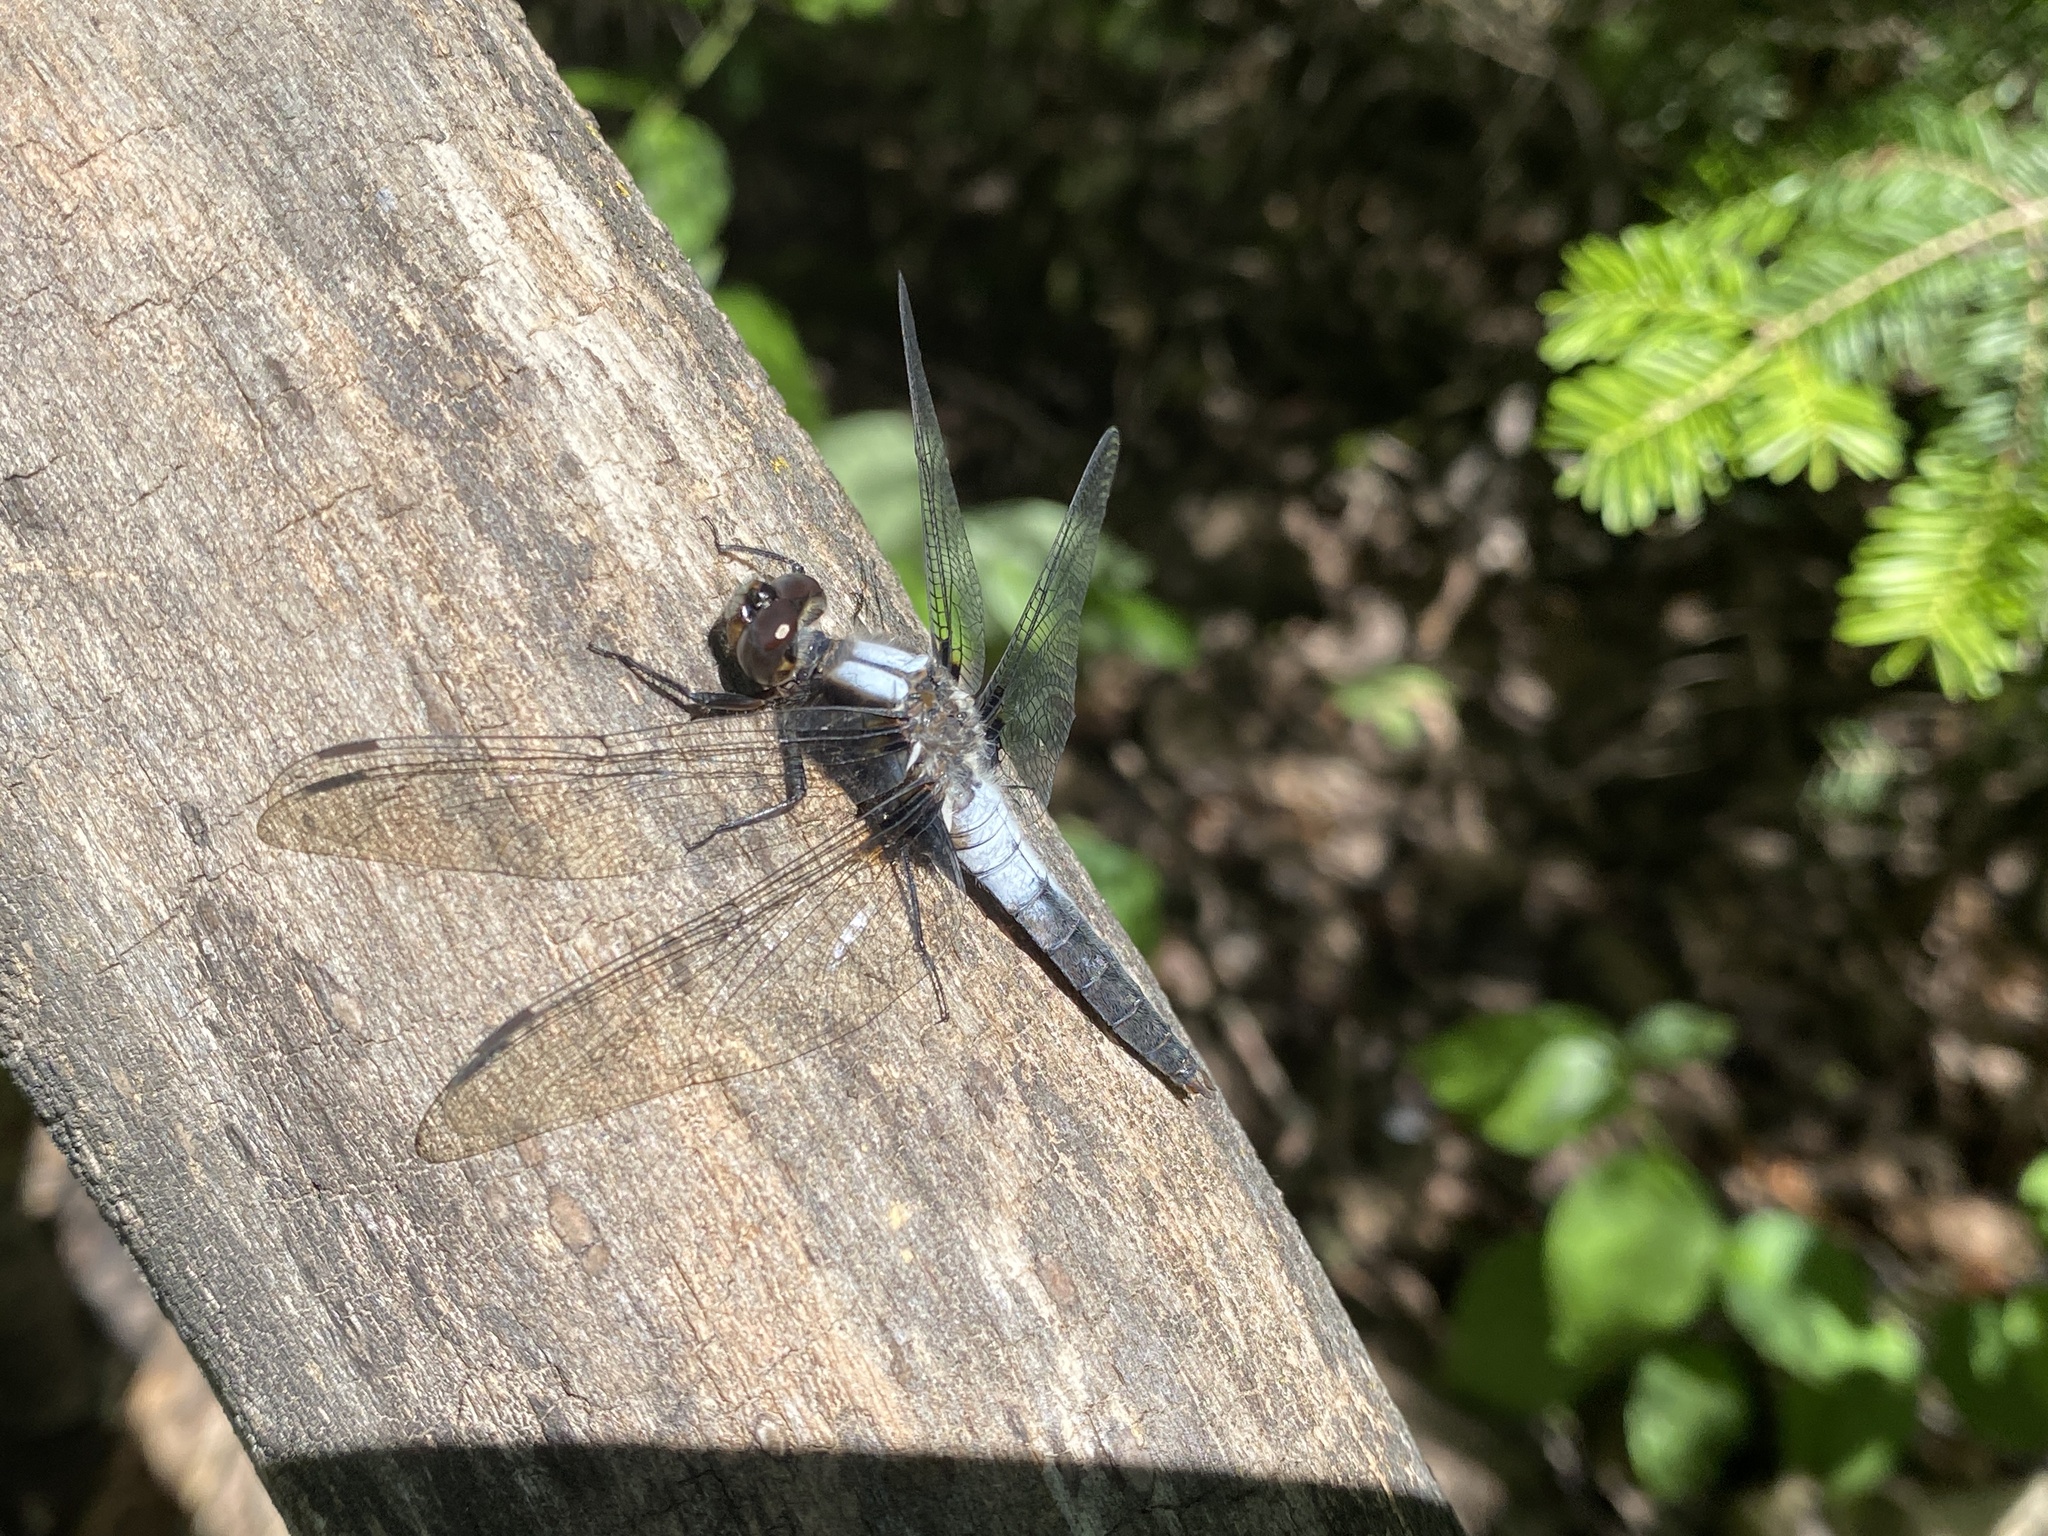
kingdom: Animalia
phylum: Arthropoda
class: Insecta
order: Odonata
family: Libellulidae
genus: Ladona
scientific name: Ladona julia
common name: Chalk-fronted corporal
